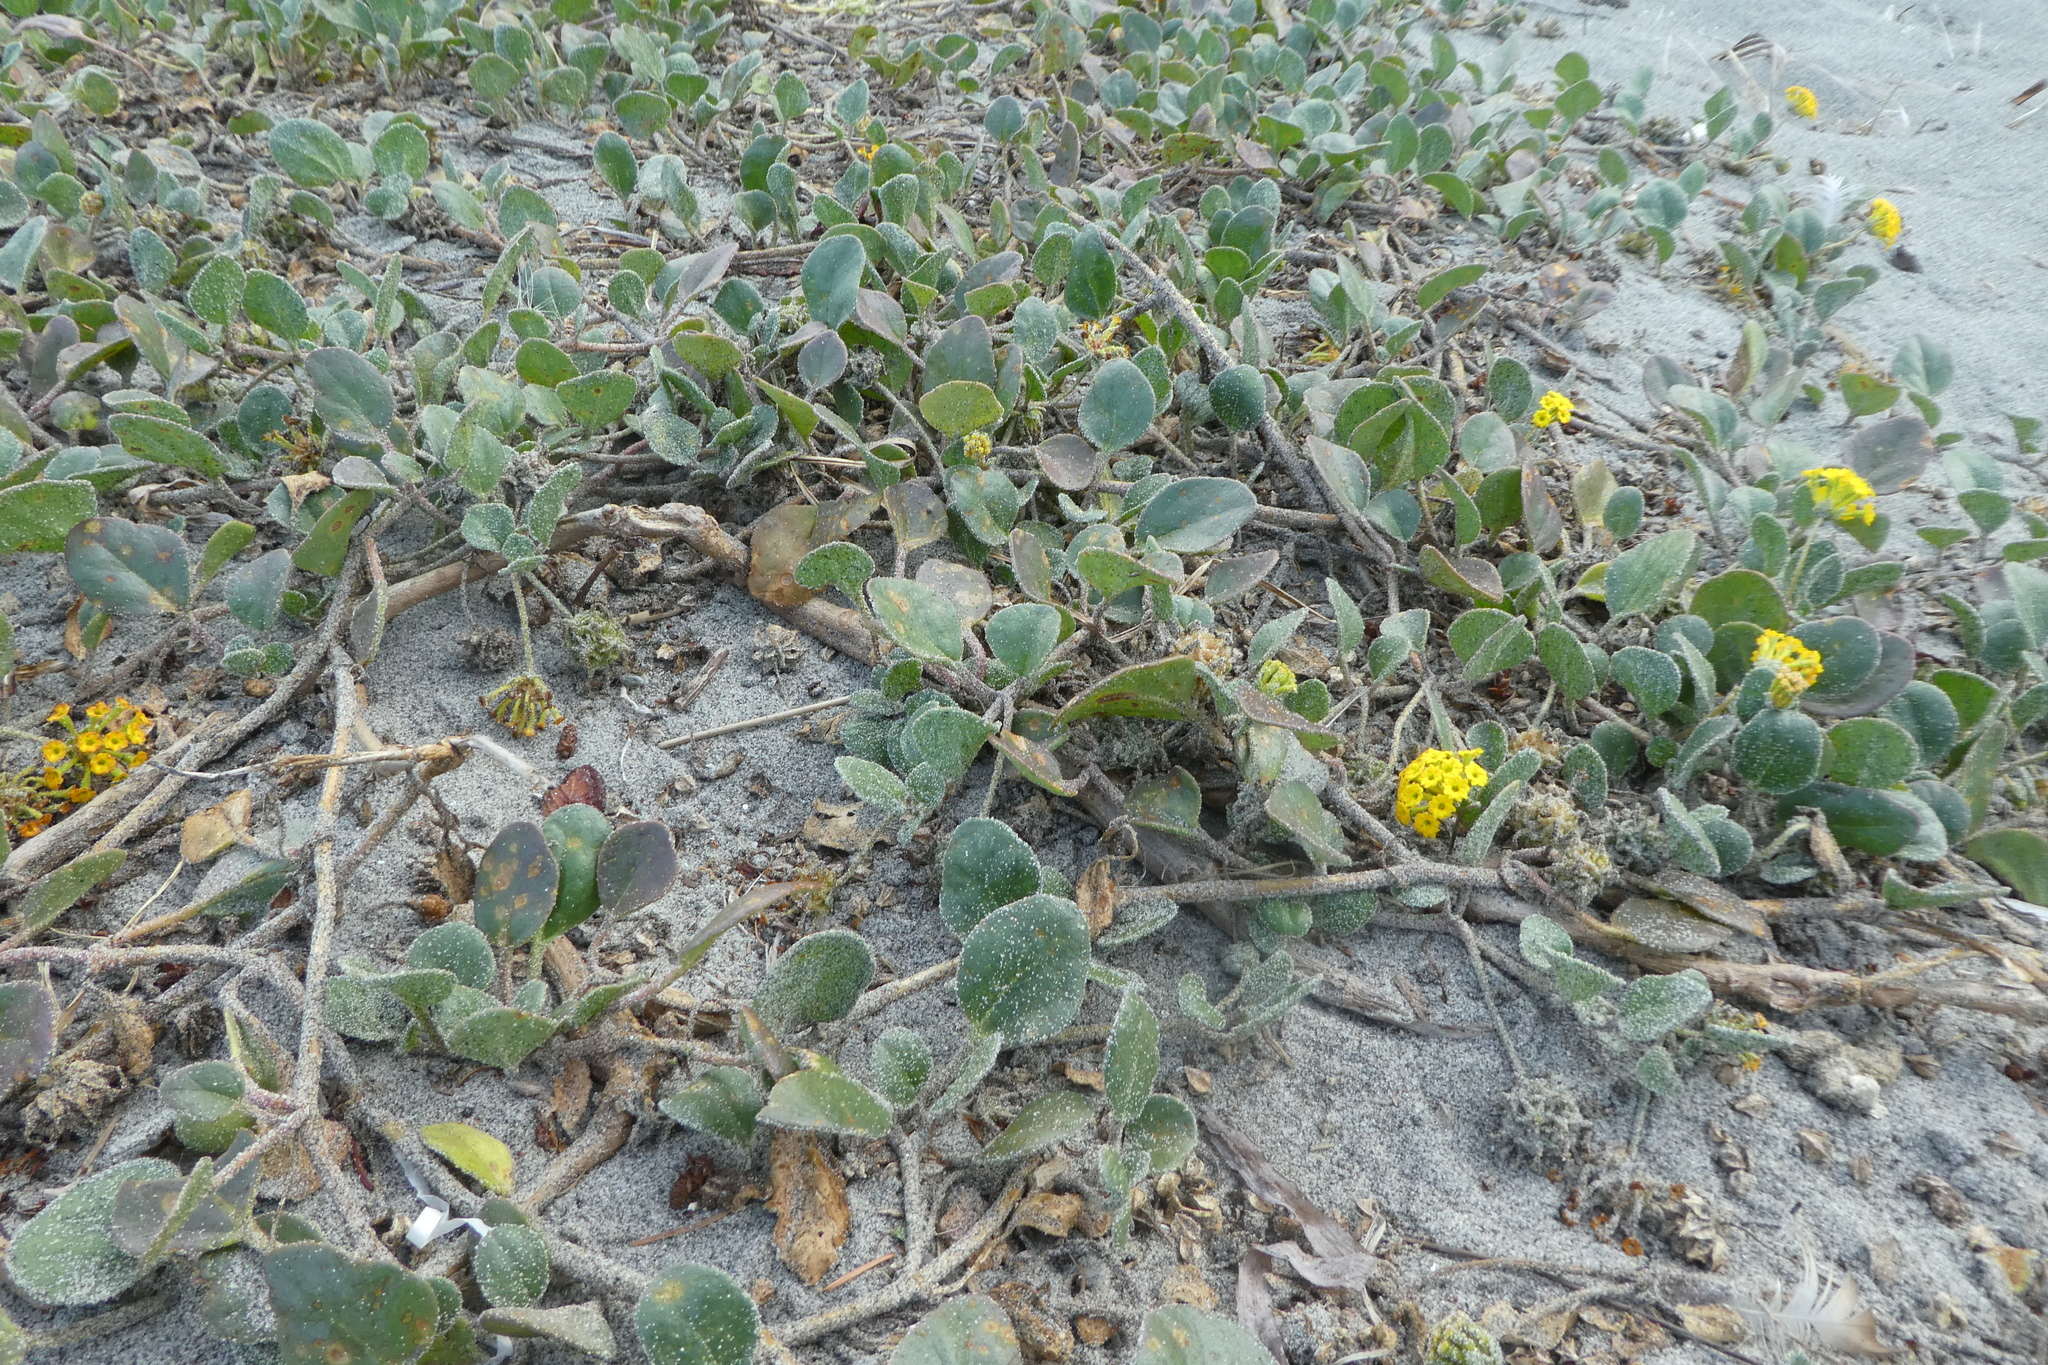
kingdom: Plantae
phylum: Tracheophyta
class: Magnoliopsida
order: Caryophyllales
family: Nyctaginaceae
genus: Abronia
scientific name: Abronia latifolia
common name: Yellow sand-verbena
